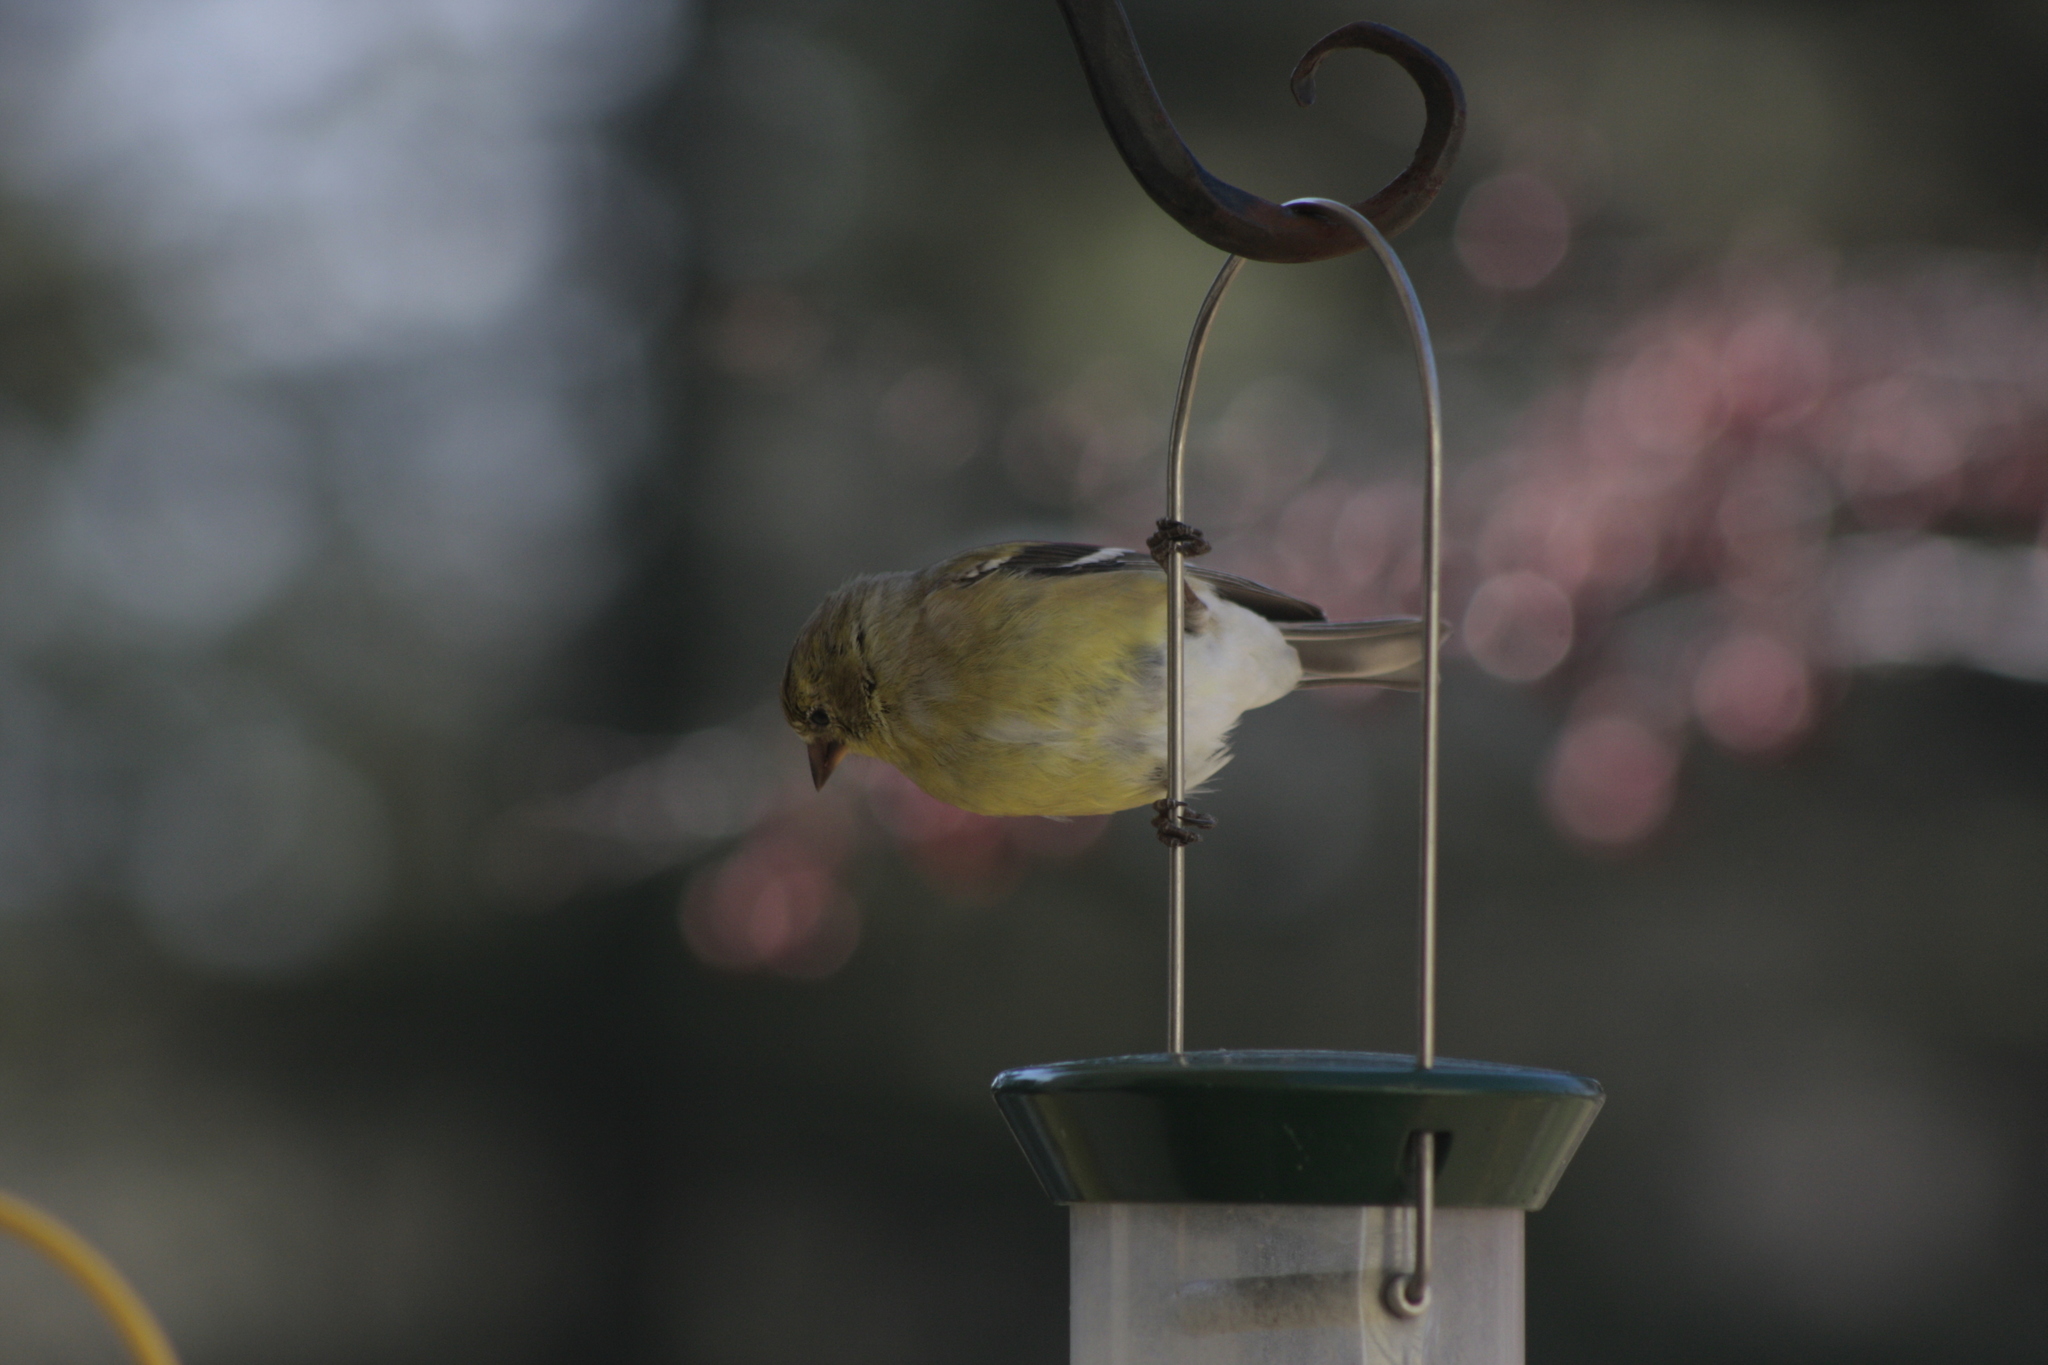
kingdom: Animalia
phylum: Chordata
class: Aves
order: Passeriformes
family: Fringillidae
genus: Spinus
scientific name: Spinus tristis
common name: American goldfinch
